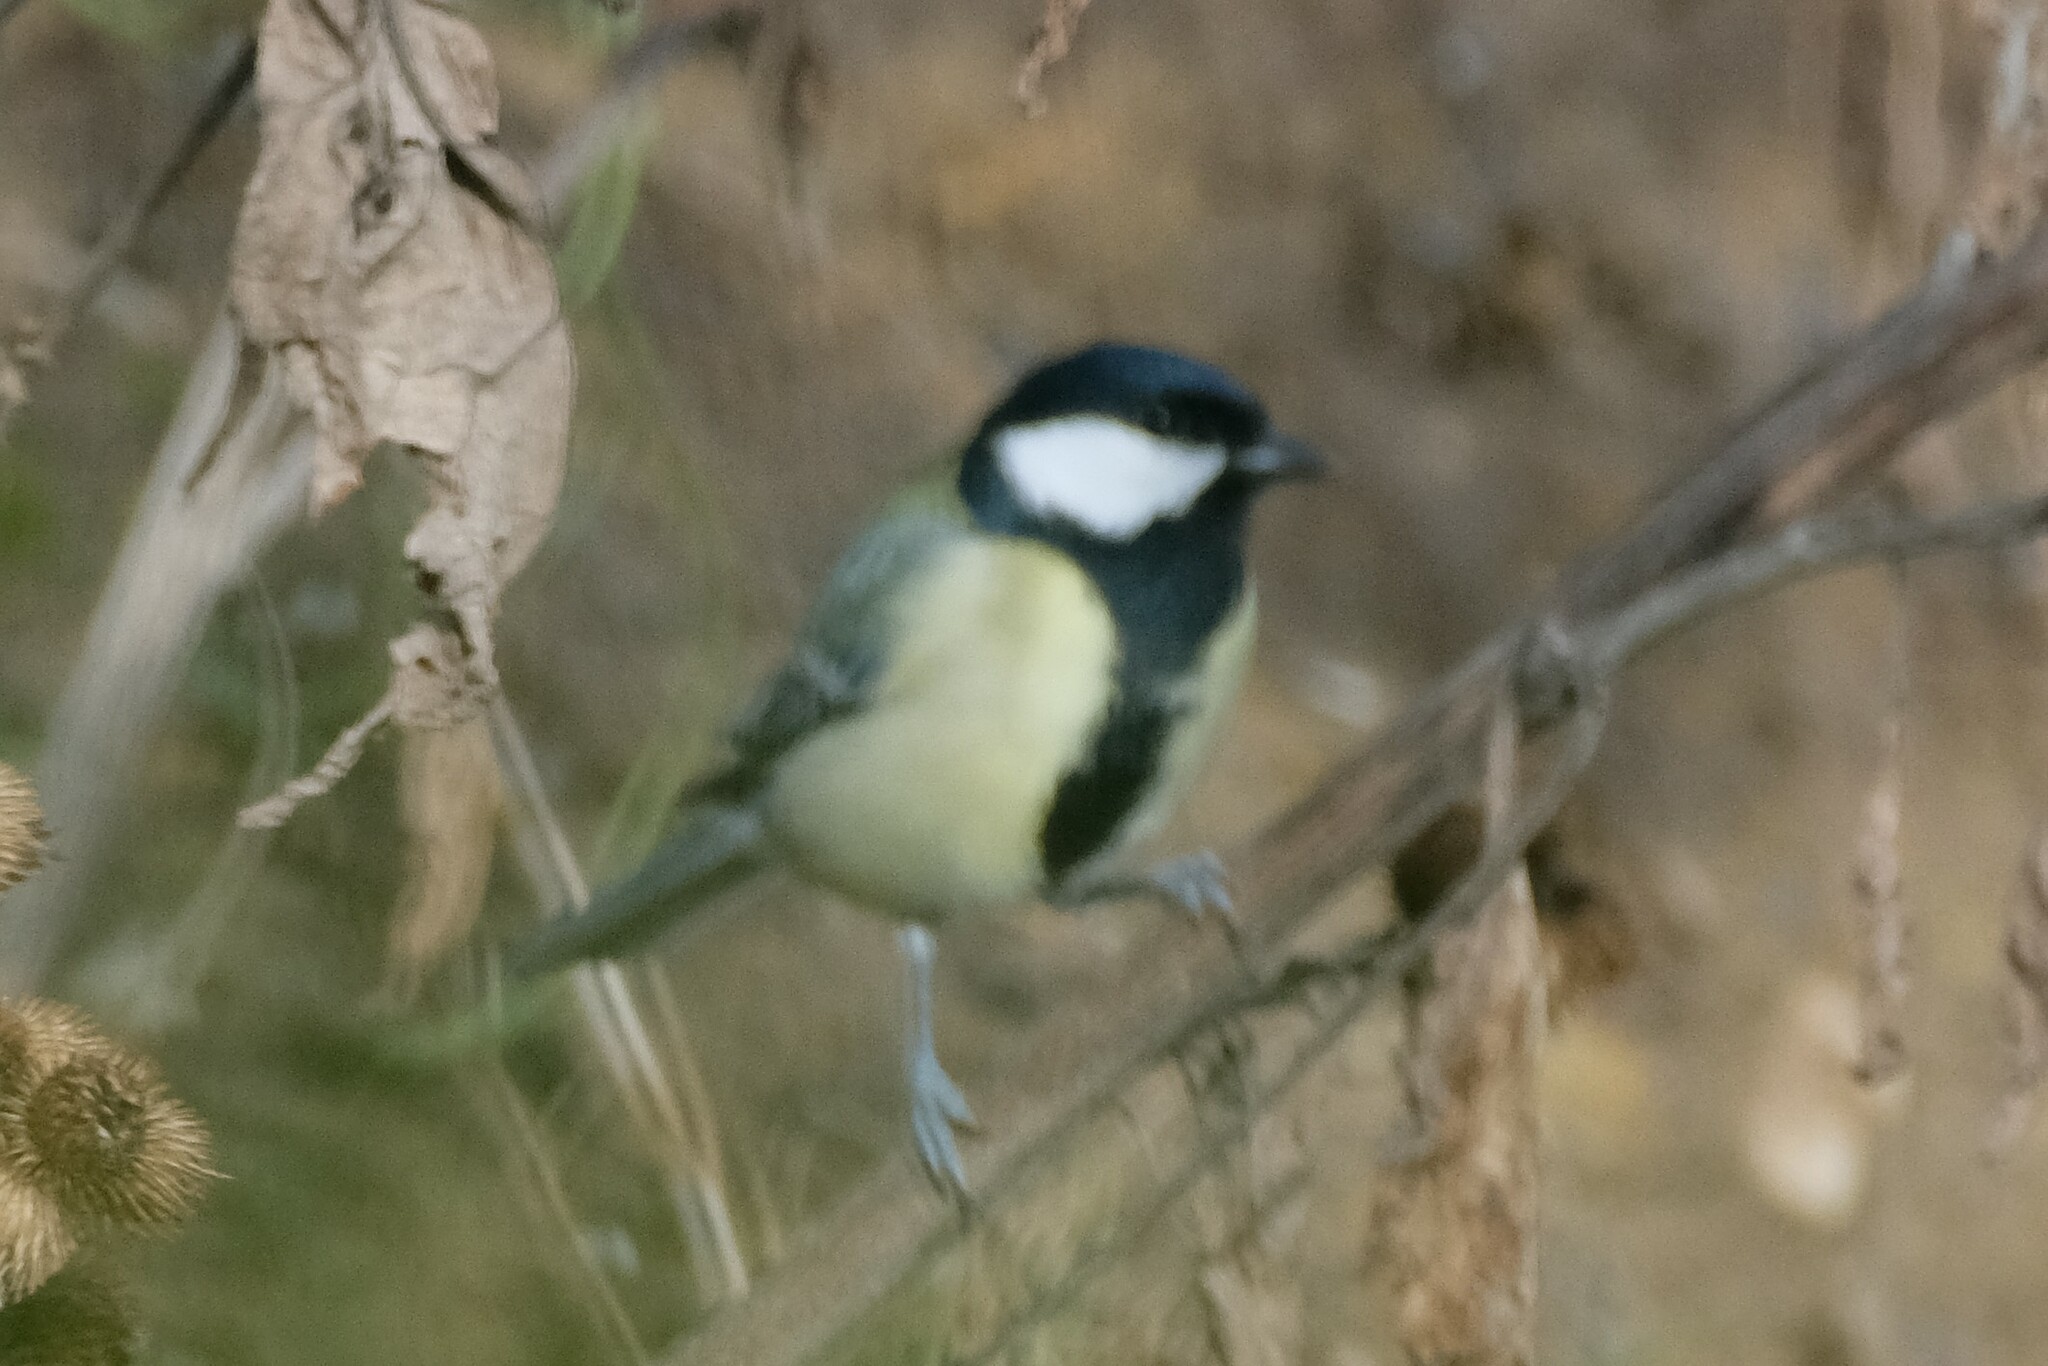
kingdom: Animalia
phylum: Chordata
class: Aves
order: Passeriformes
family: Paridae
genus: Parus
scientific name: Parus major
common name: Great tit
